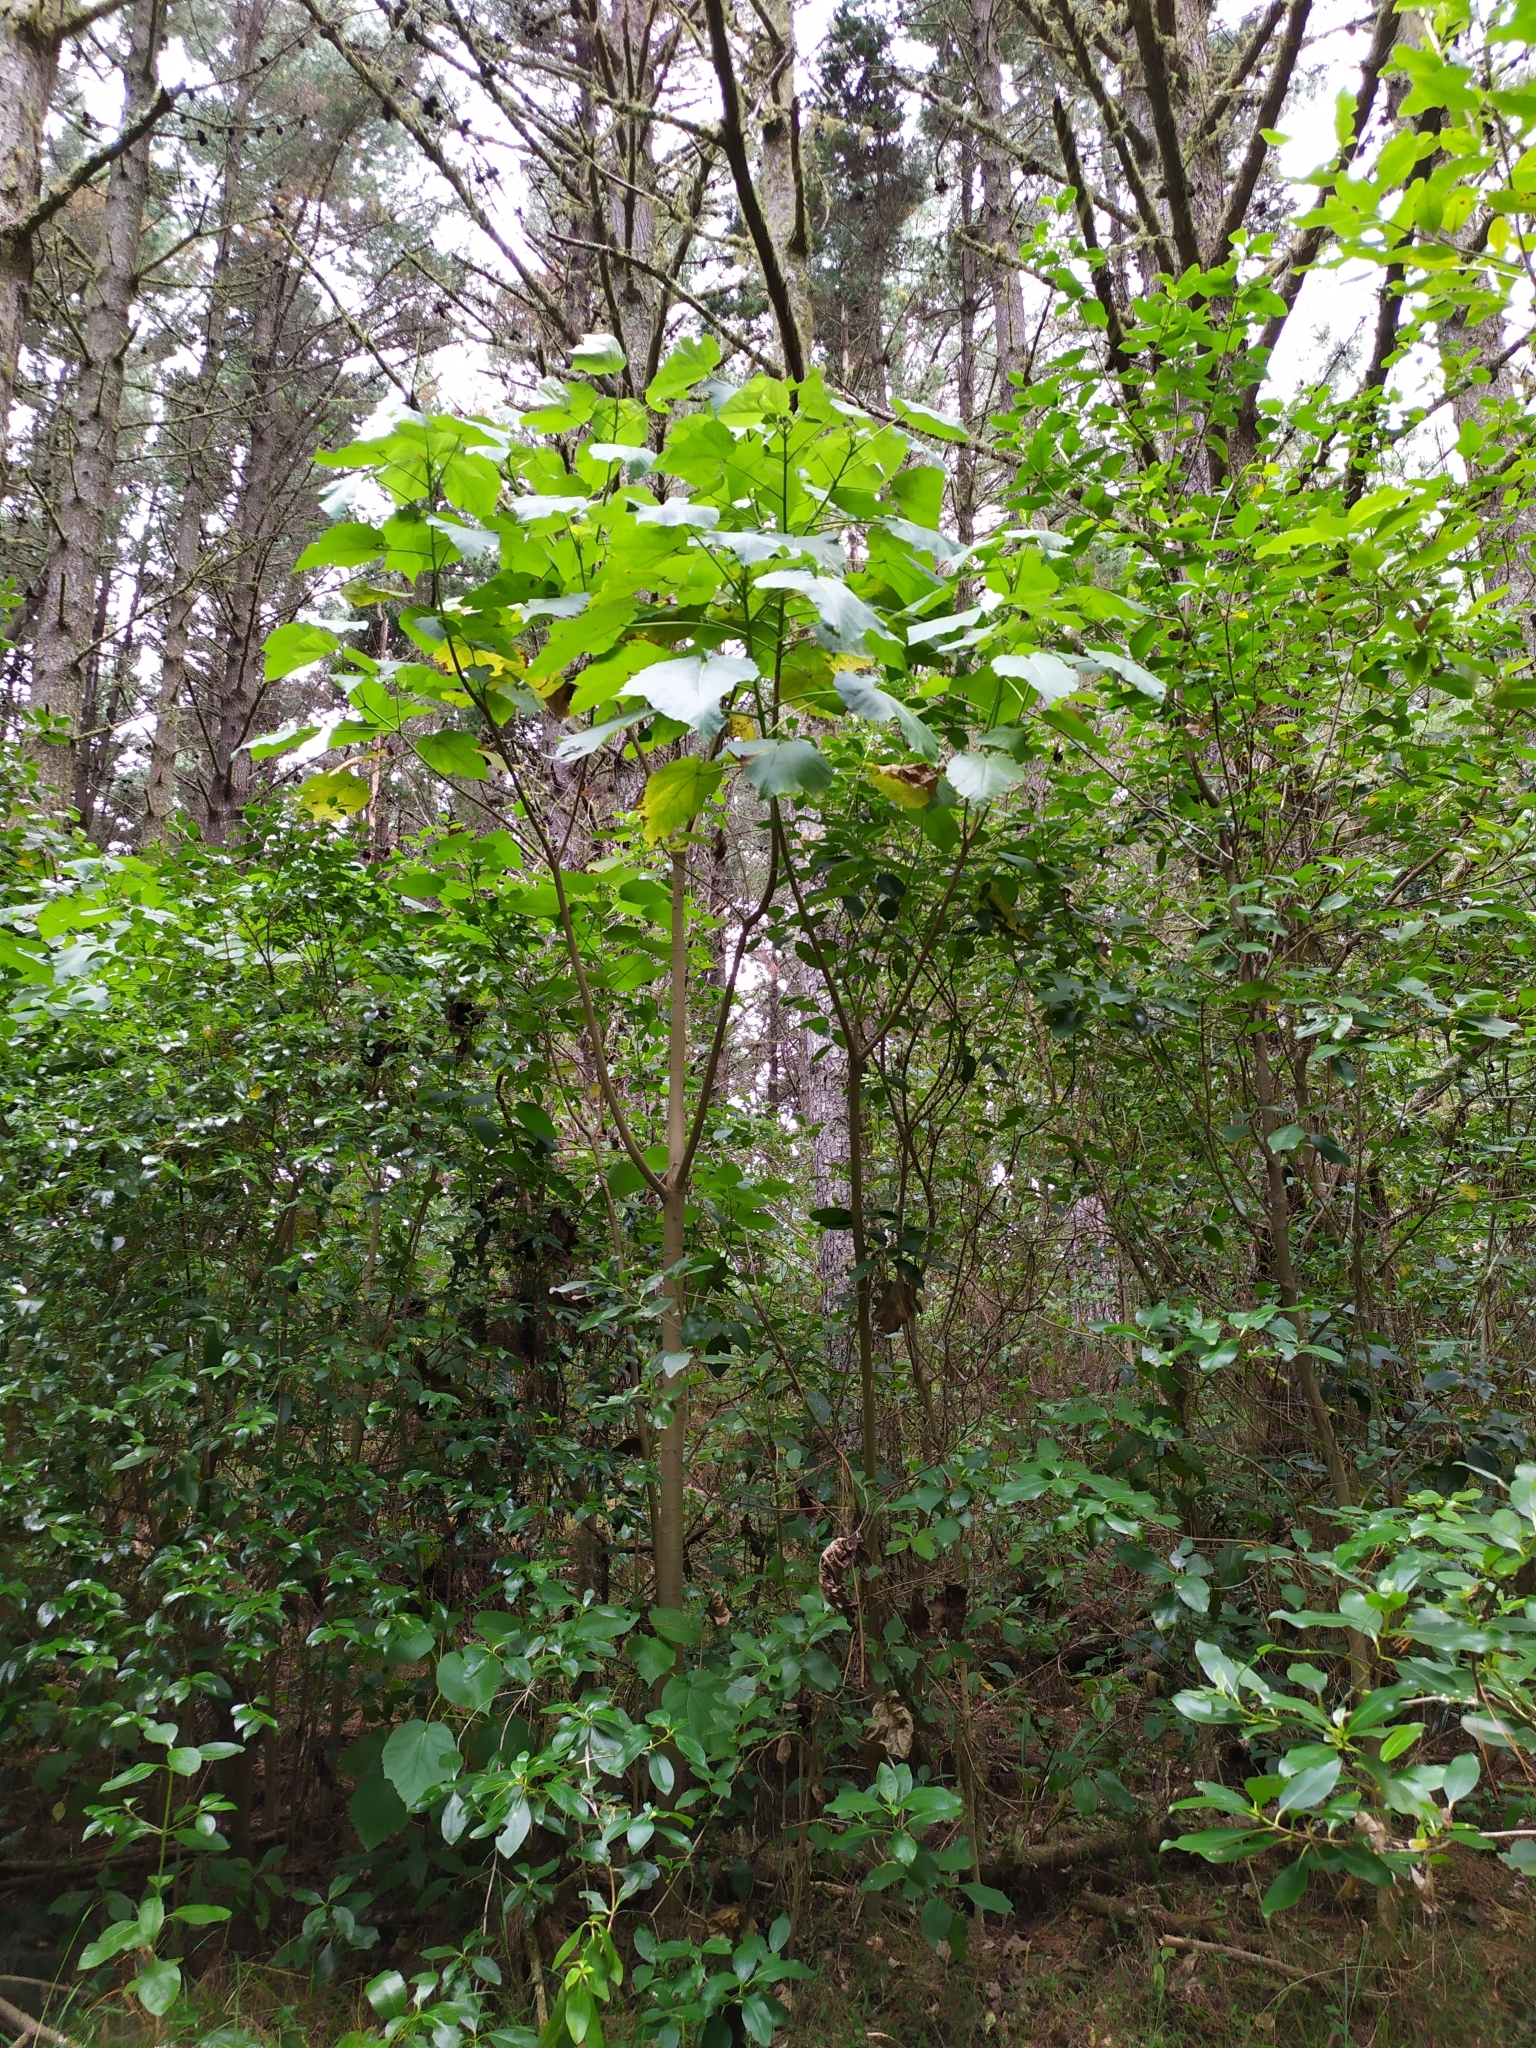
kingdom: Plantae
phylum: Tracheophyta
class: Magnoliopsida
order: Malvales
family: Malvaceae
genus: Entelea
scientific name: Entelea arborescens
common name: New zealand-mulberry
